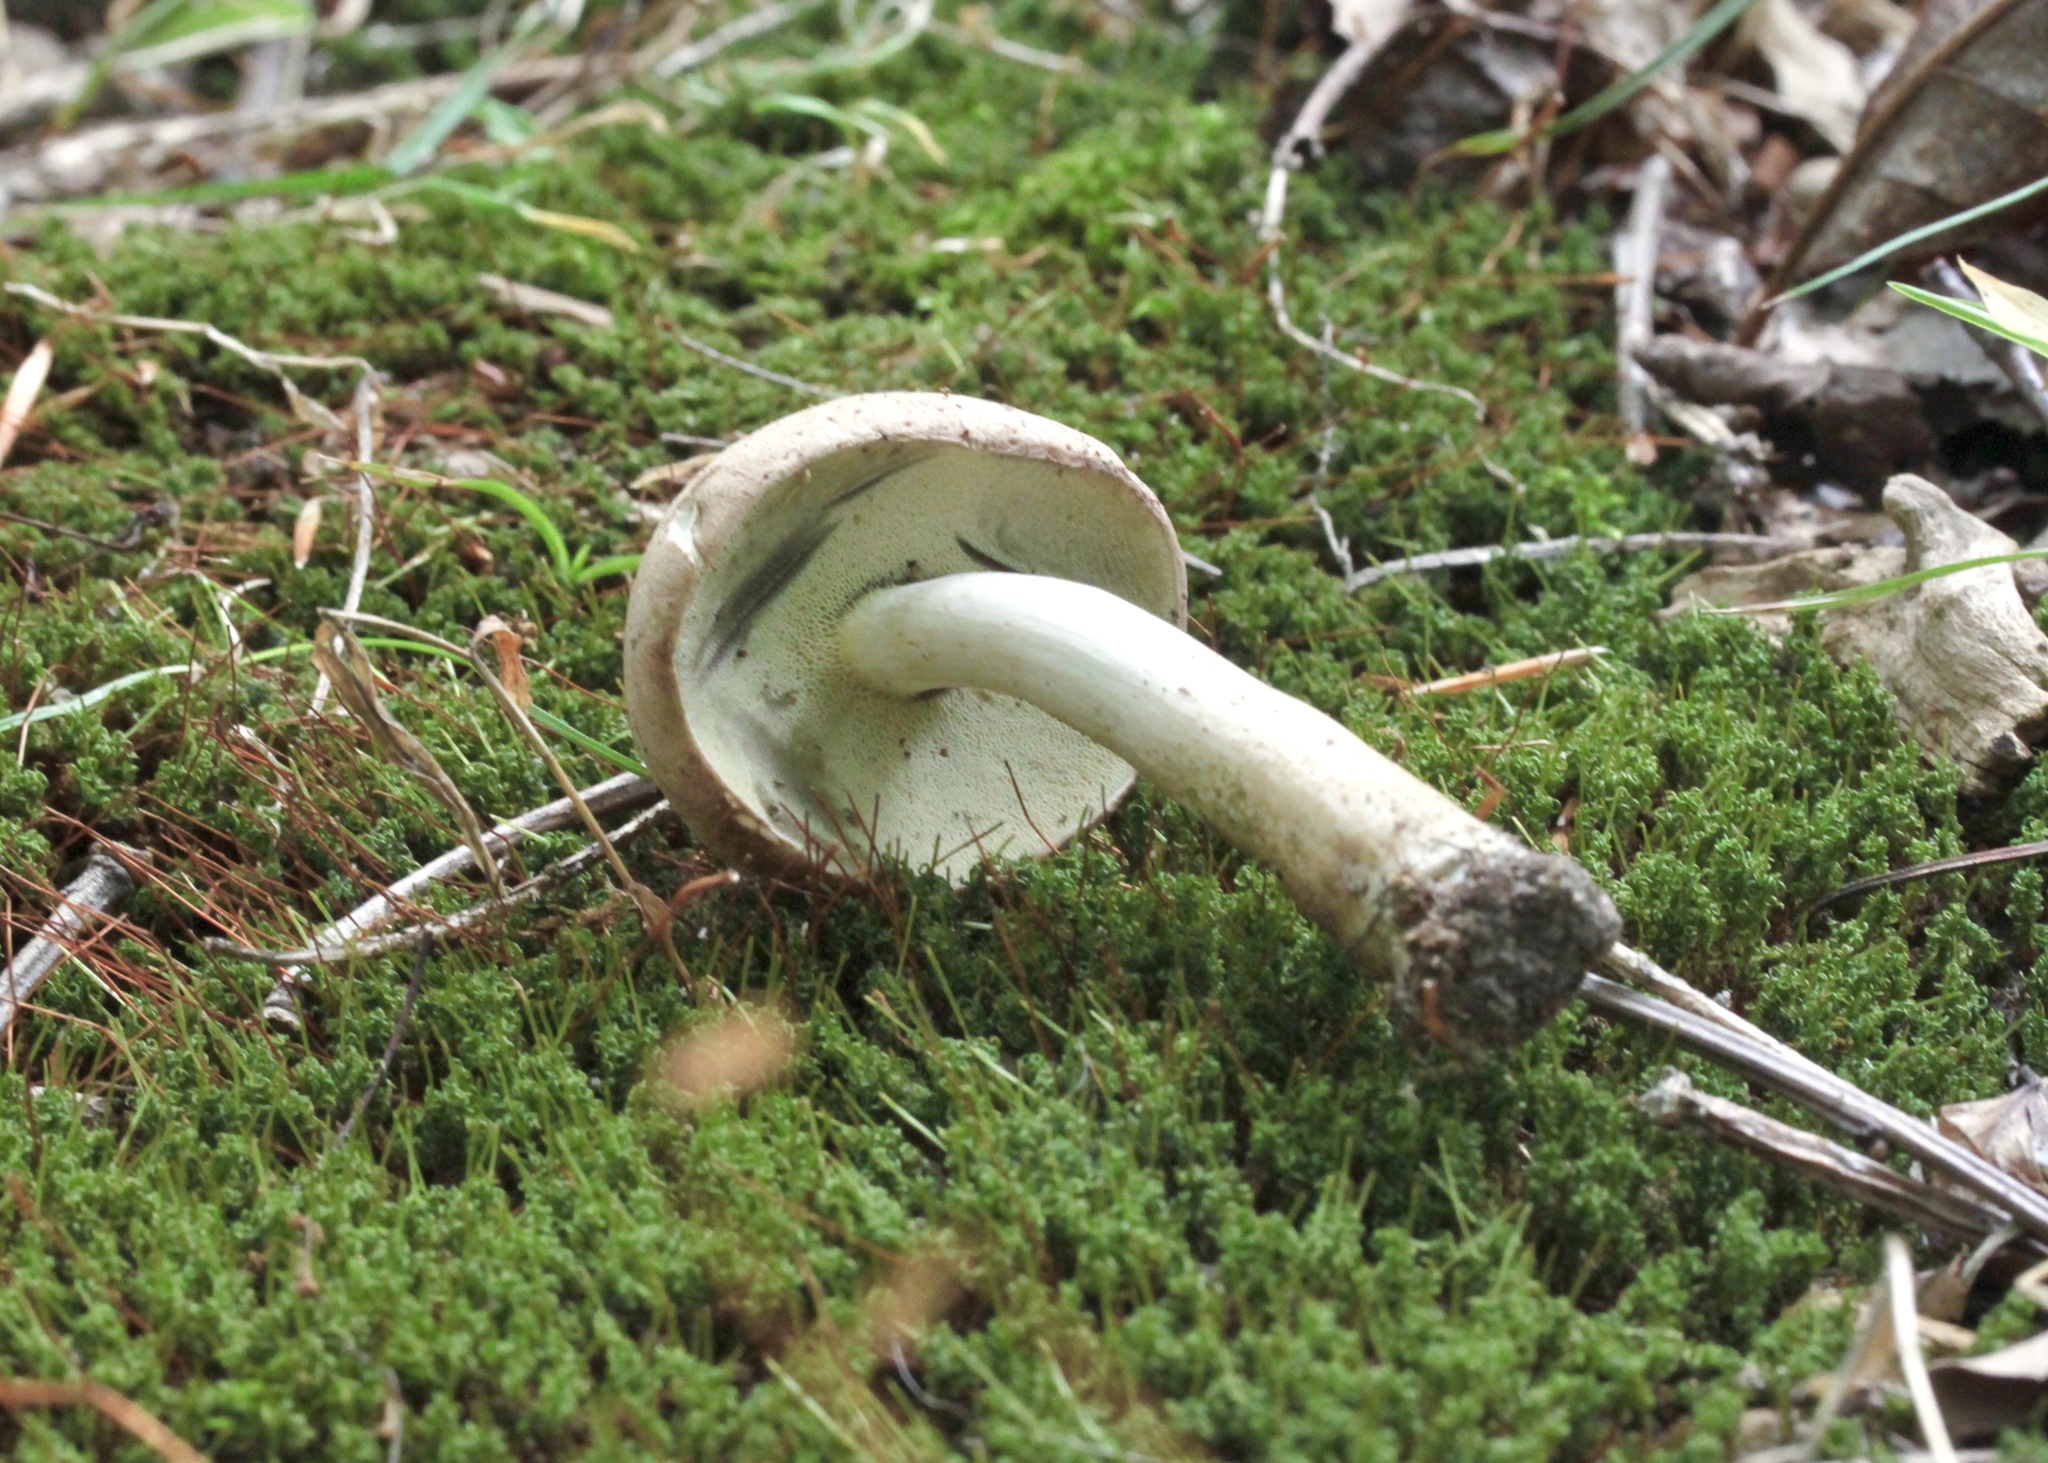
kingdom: Fungi
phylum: Basidiomycota
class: Agaricomycetes
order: Boletales
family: Boletaceae
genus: Imleria
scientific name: Imleria pallida
